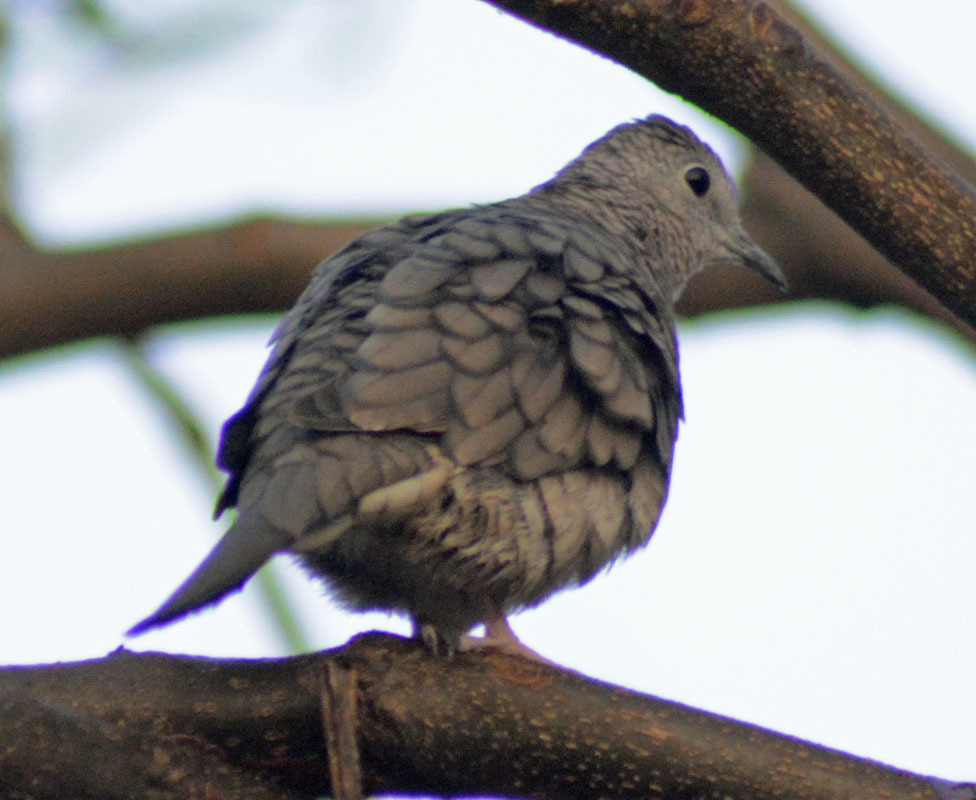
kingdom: Animalia
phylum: Chordata
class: Aves
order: Columbiformes
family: Columbidae
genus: Columbina
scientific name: Columbina inca
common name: Inca dove
